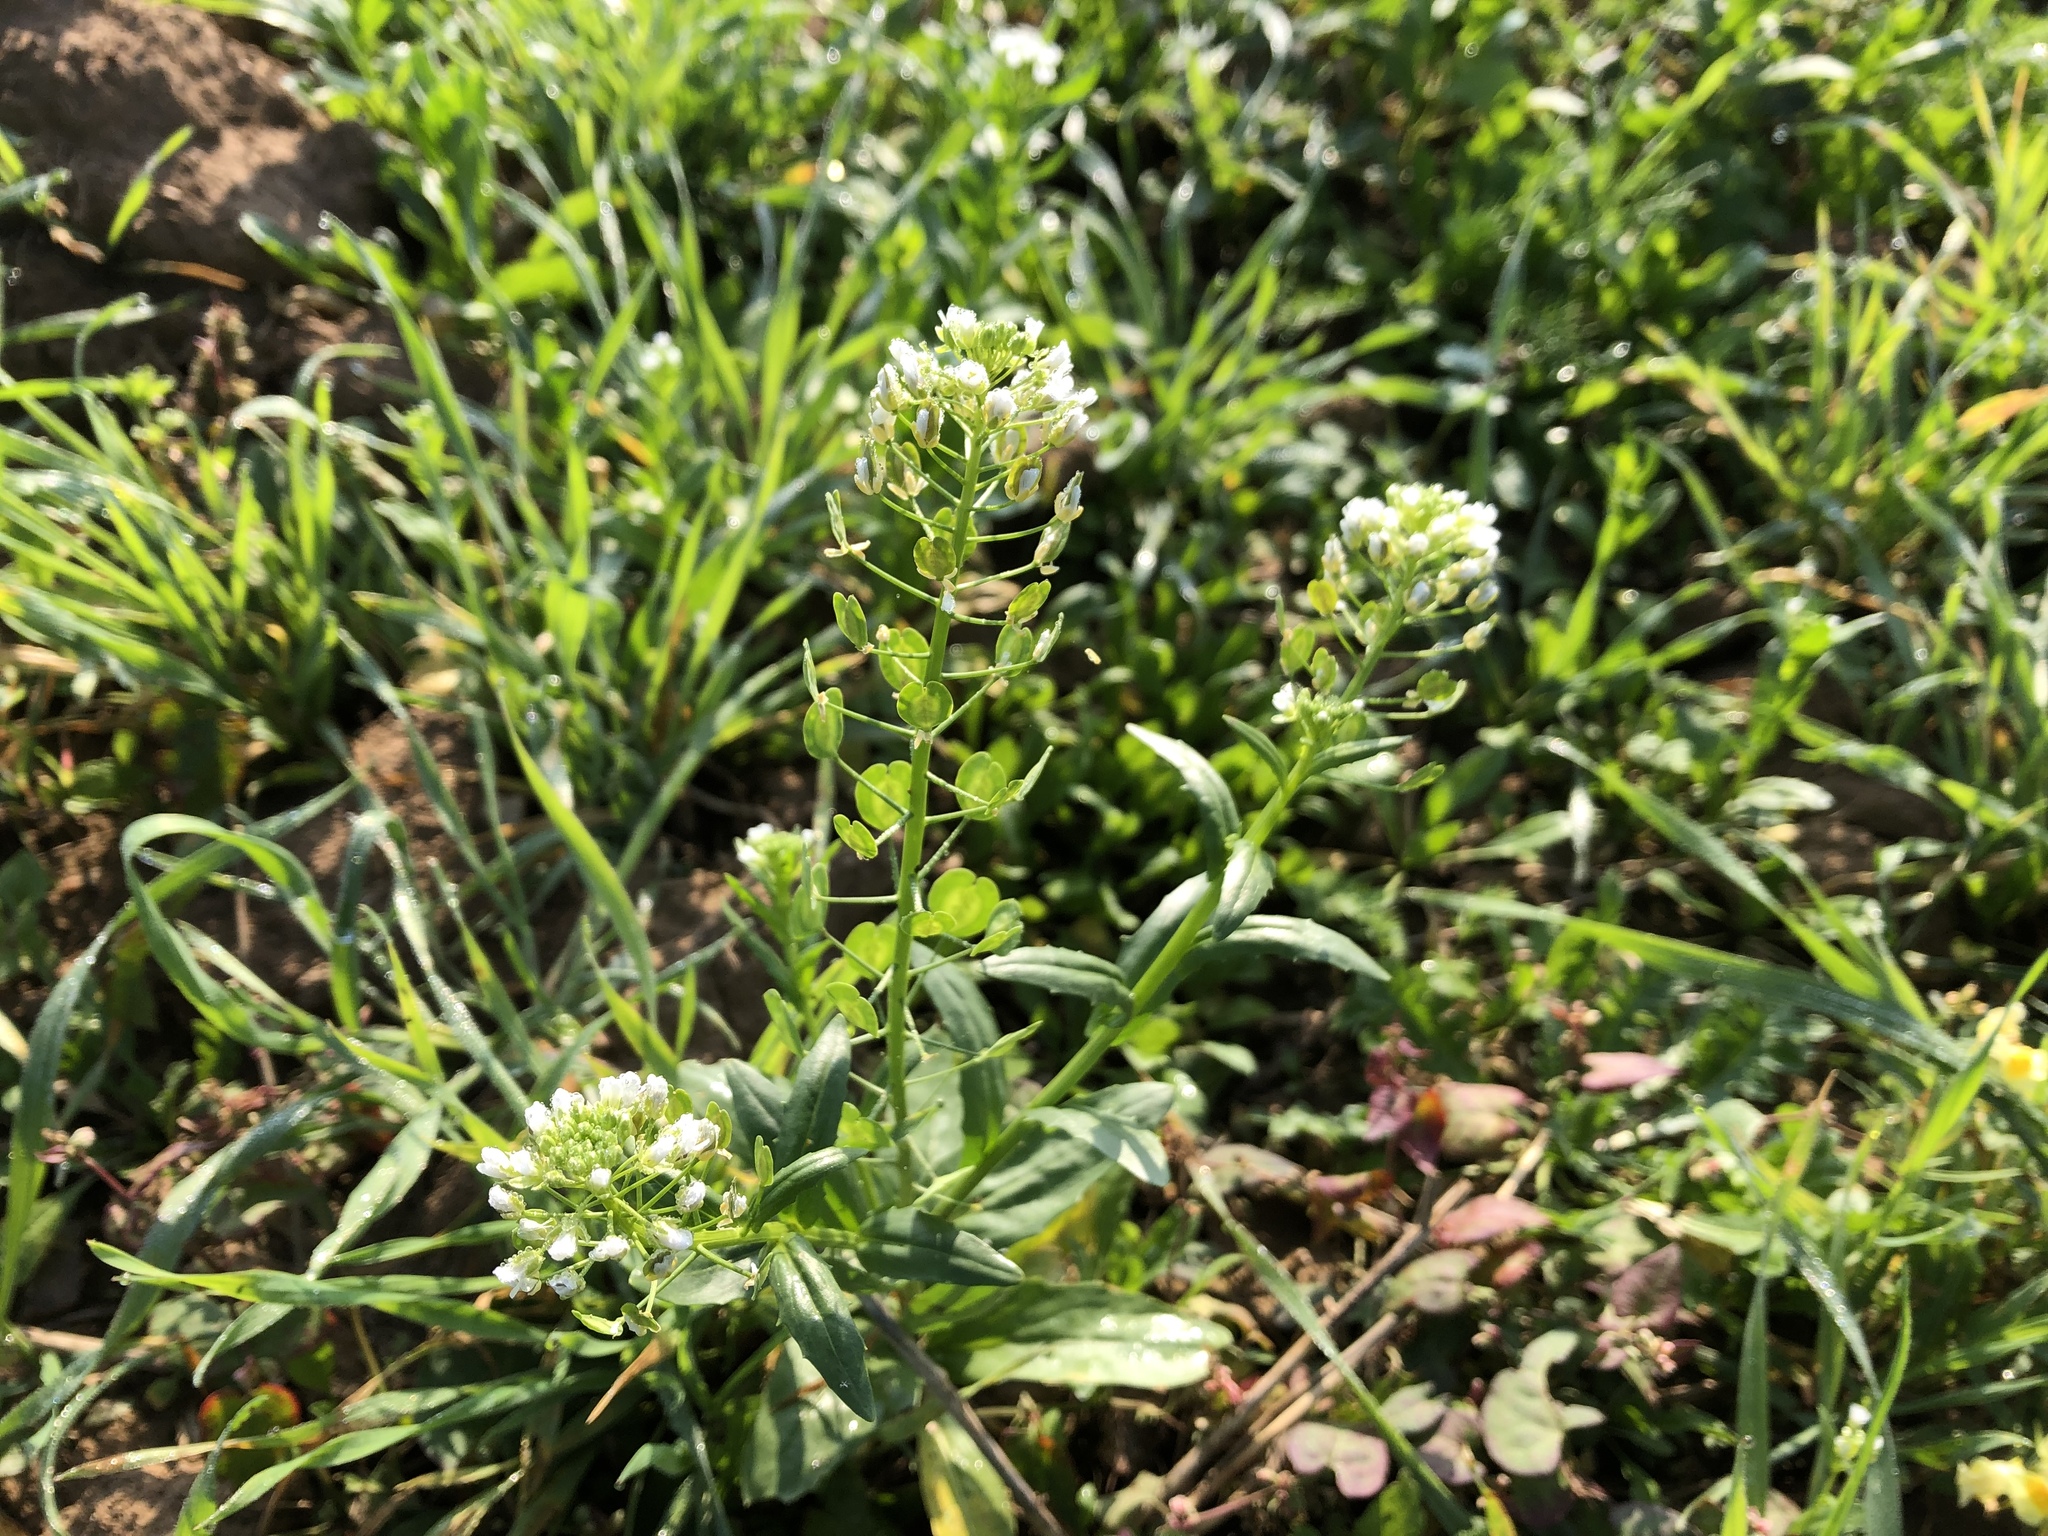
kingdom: Plantae
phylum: Tracheophyta
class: Magnoliopsida
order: Brassicales
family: Brassicaceae
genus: Thlaspi
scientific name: Thlaspi arvense
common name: Field pennycress
